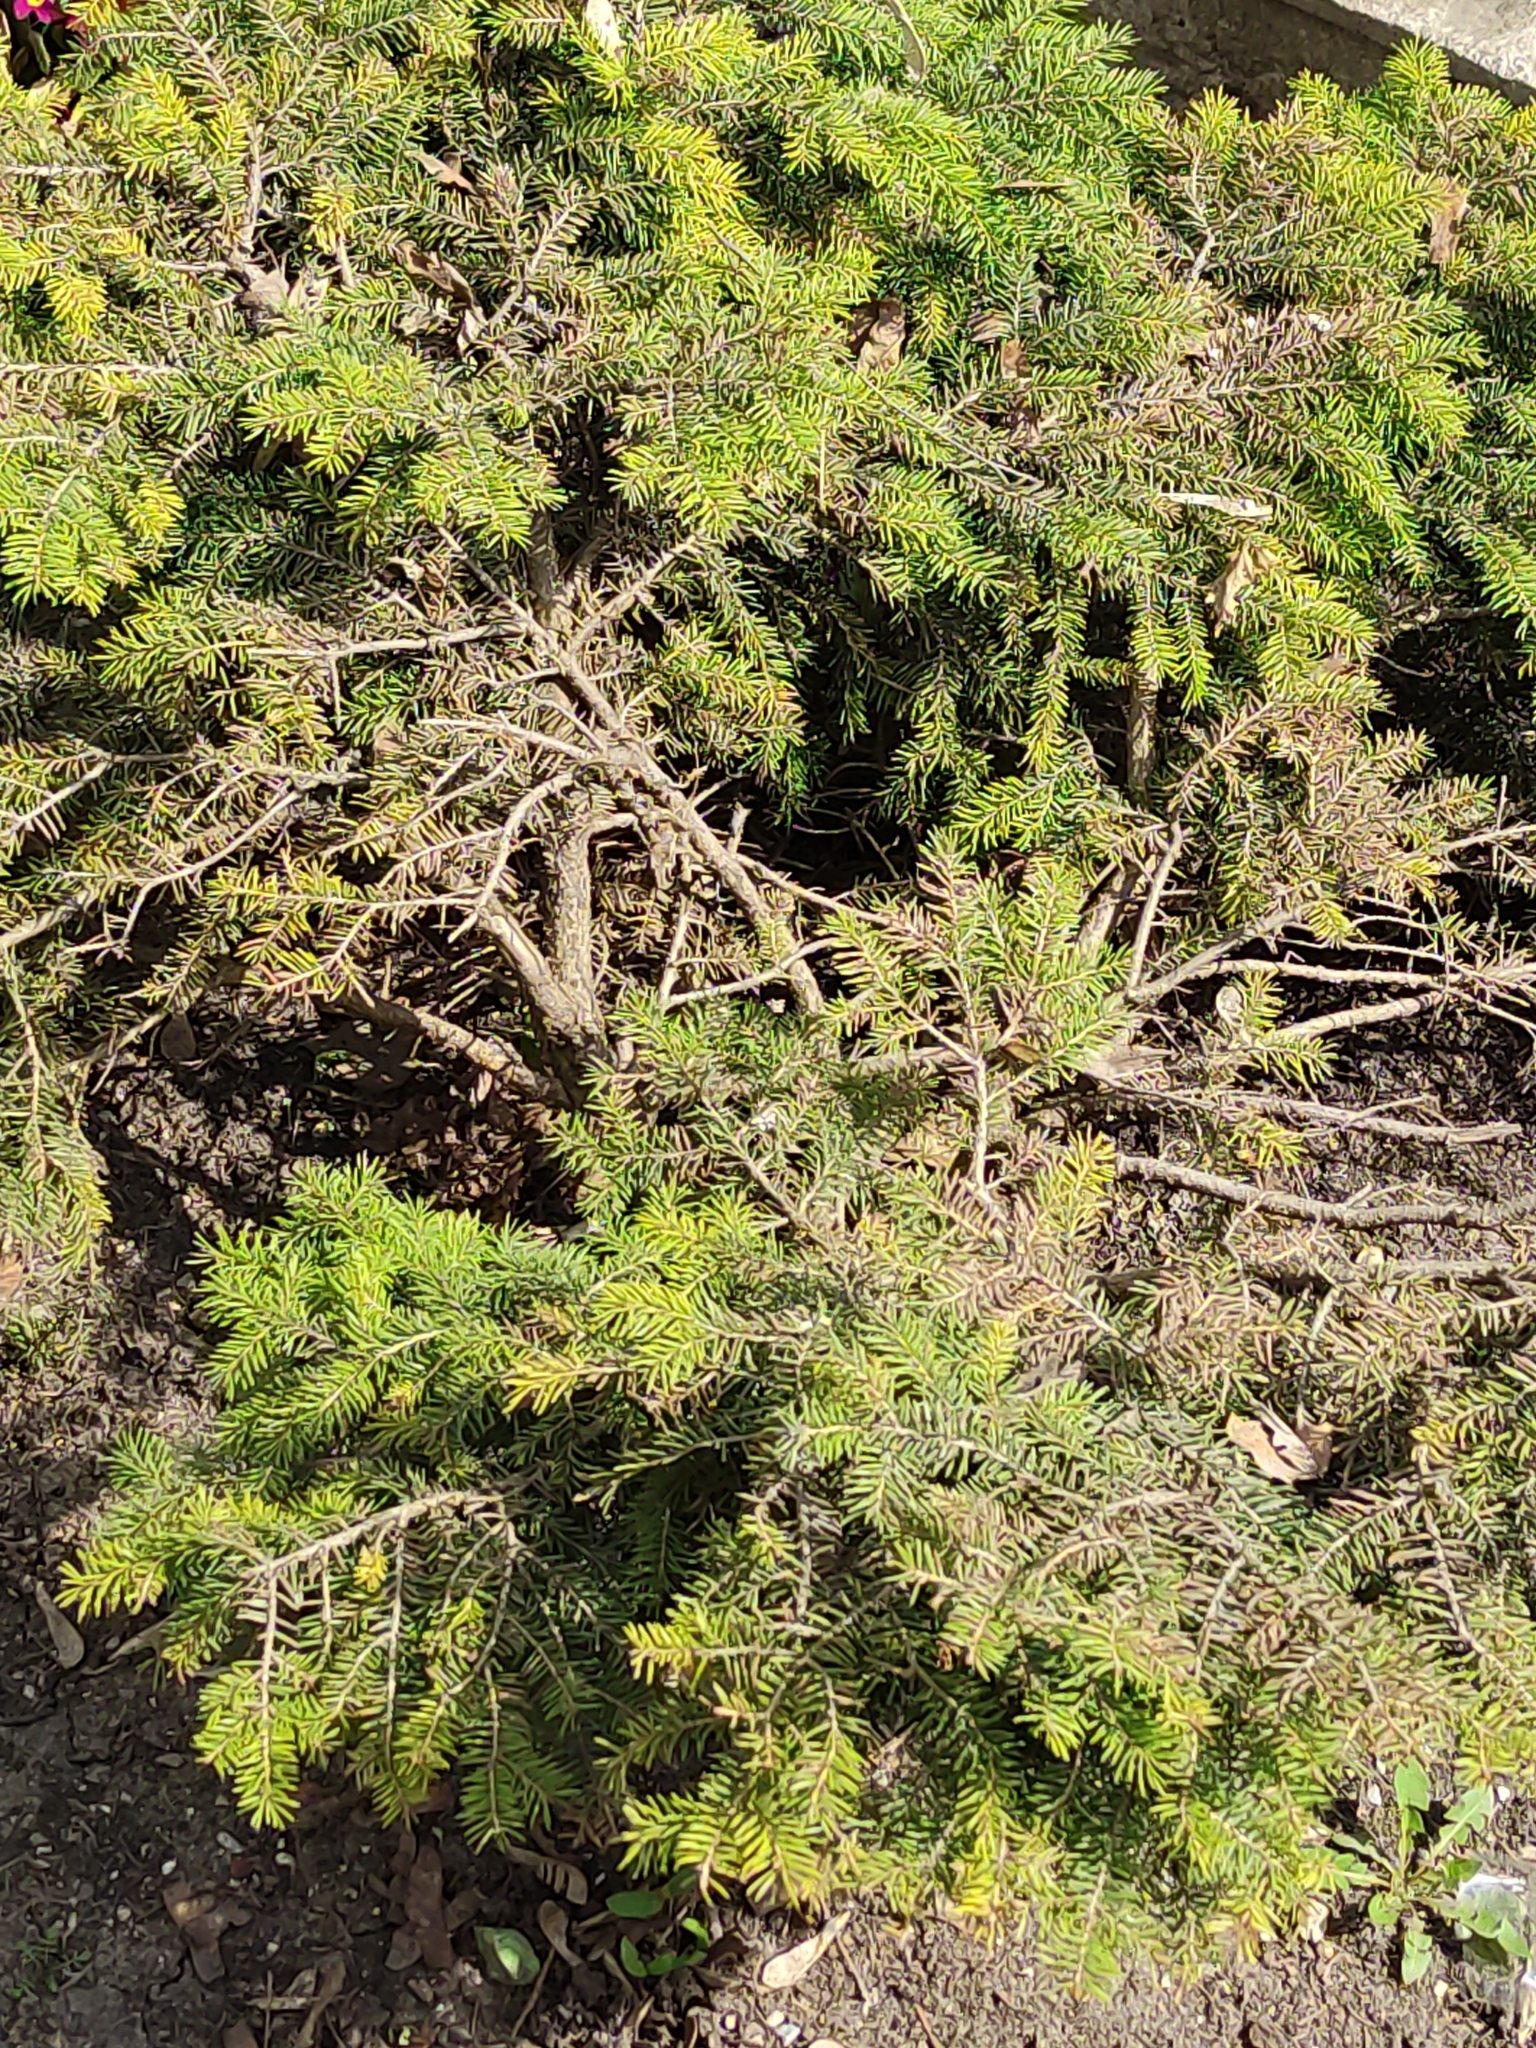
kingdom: Plantae
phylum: Tracheophyta
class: Pinopsida
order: Pinales
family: Cupressaceae
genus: Juniperus
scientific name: Juniperus communis
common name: Common juniper
